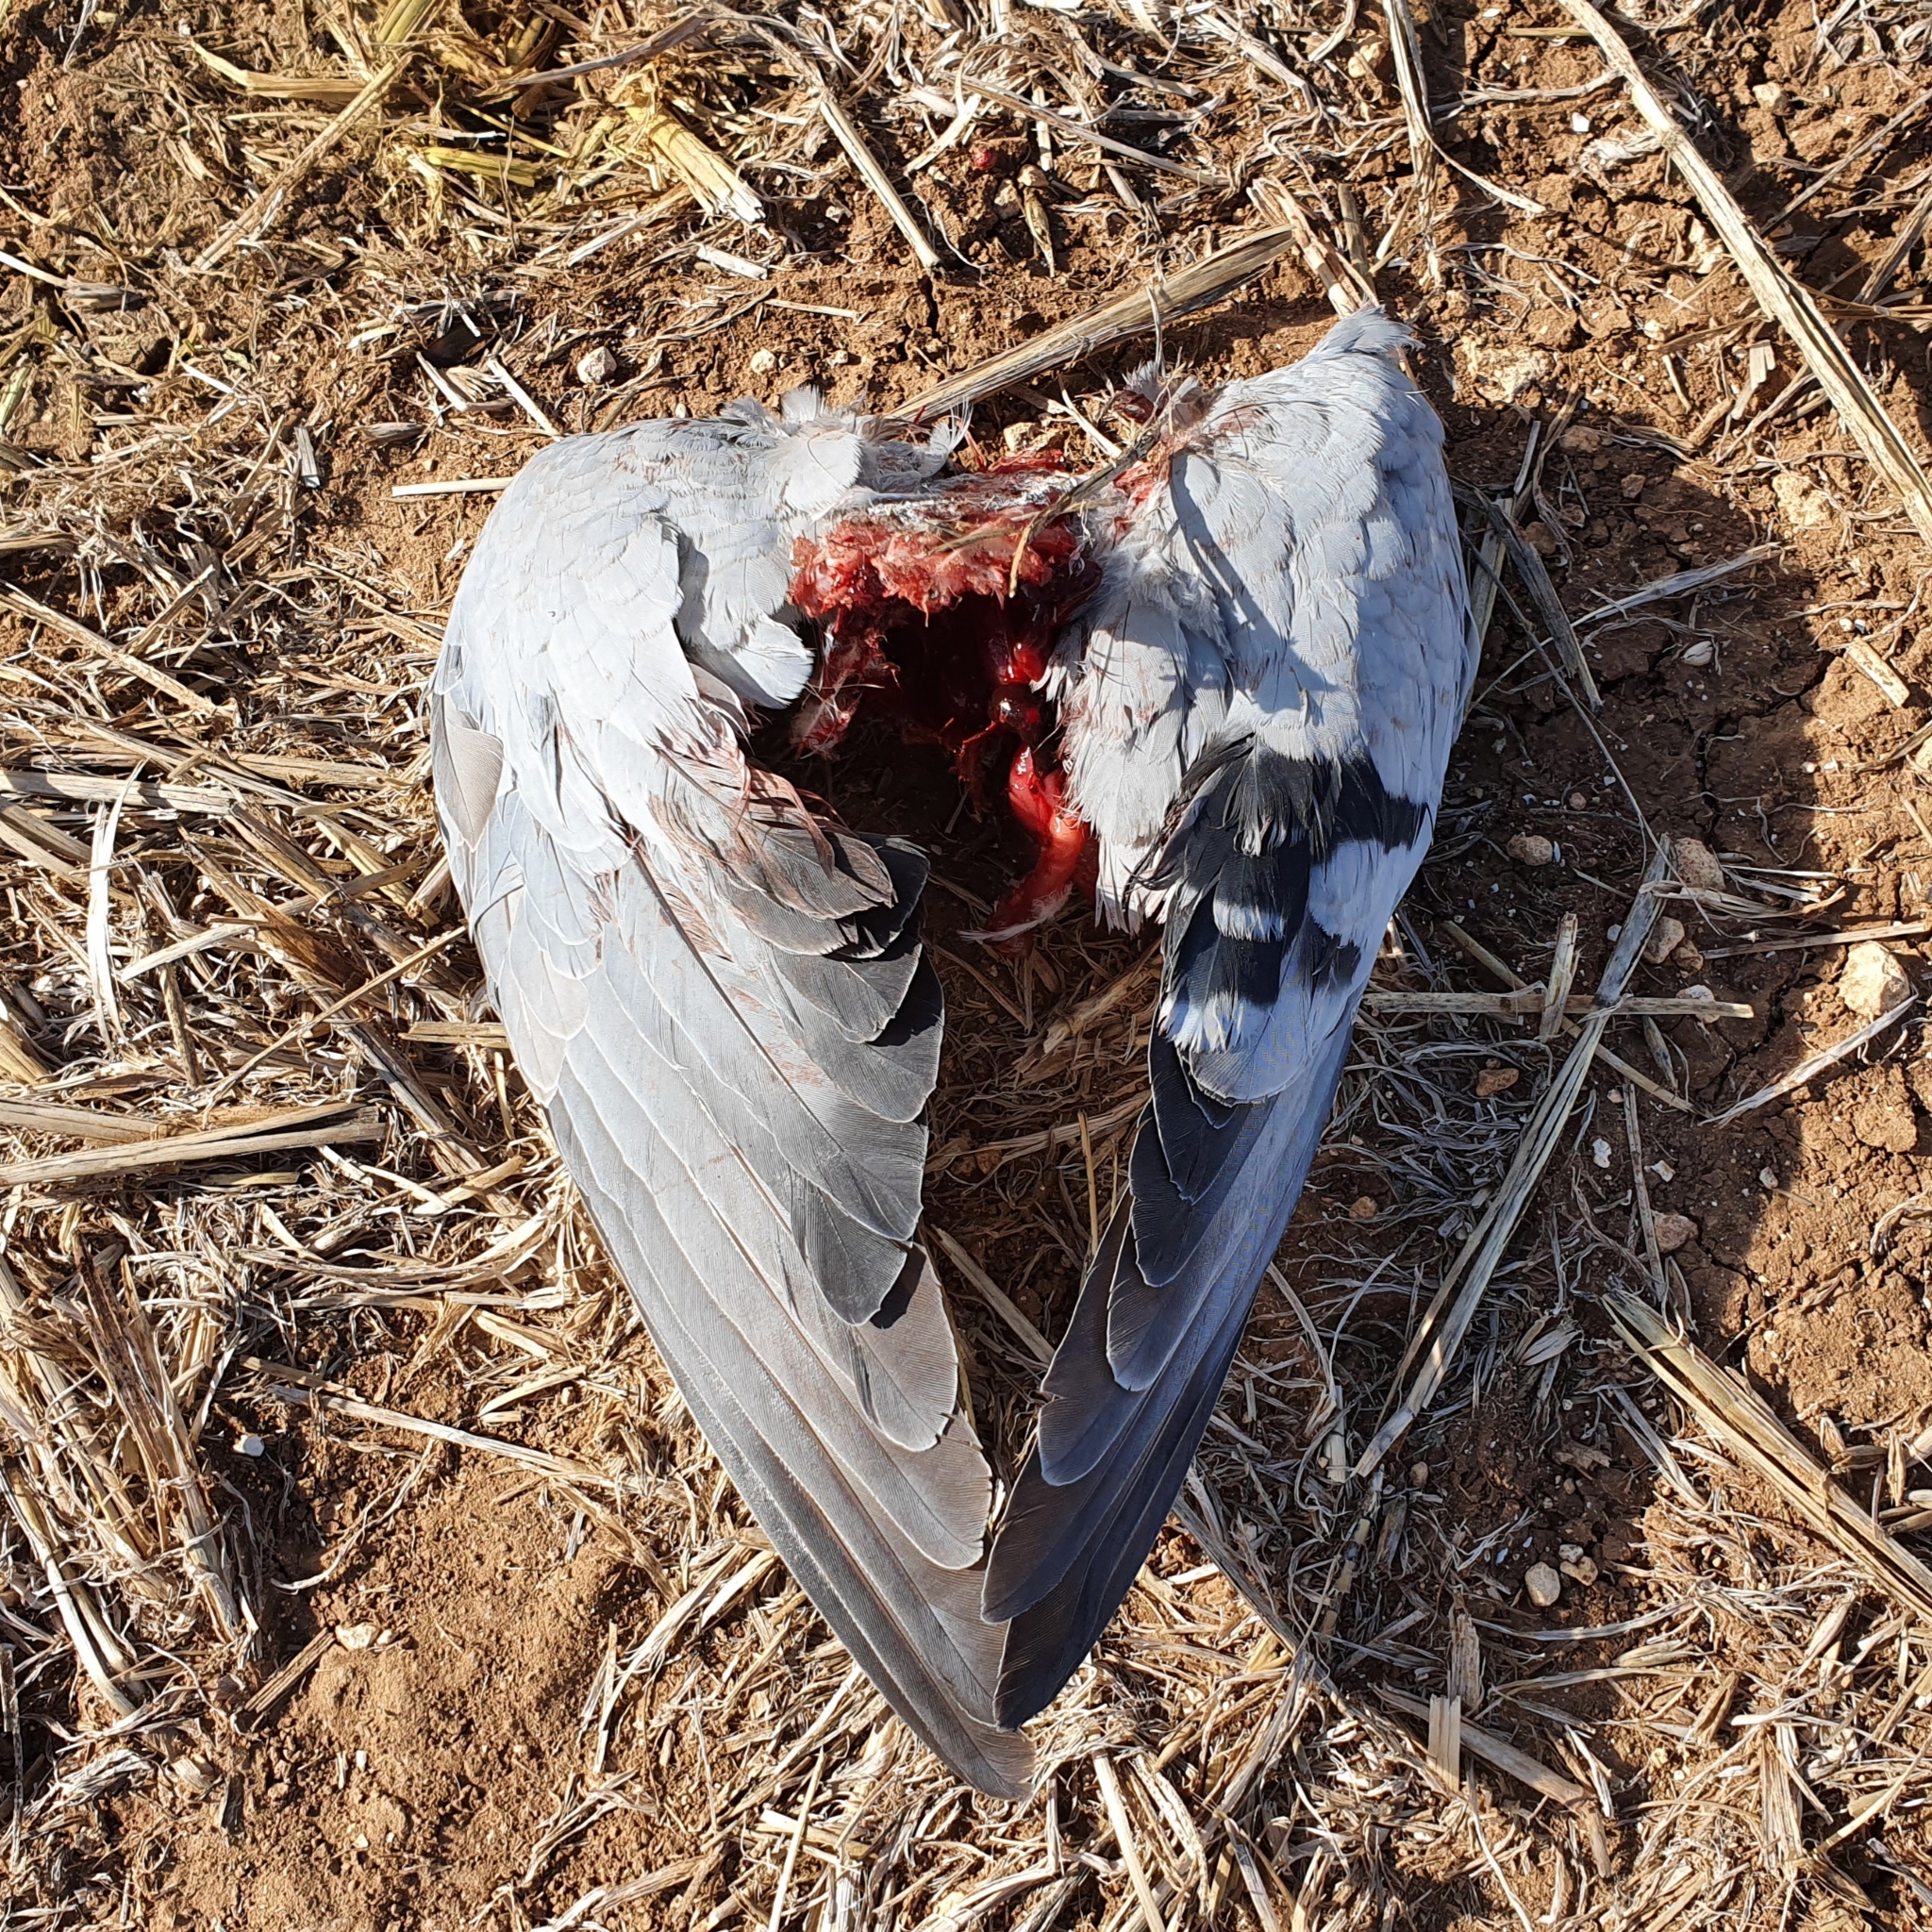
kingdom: Animalia
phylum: Chordata
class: Aves
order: Columbiformes
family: Columbidae
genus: Columba
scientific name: Columba livia
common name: Rock pigeon
